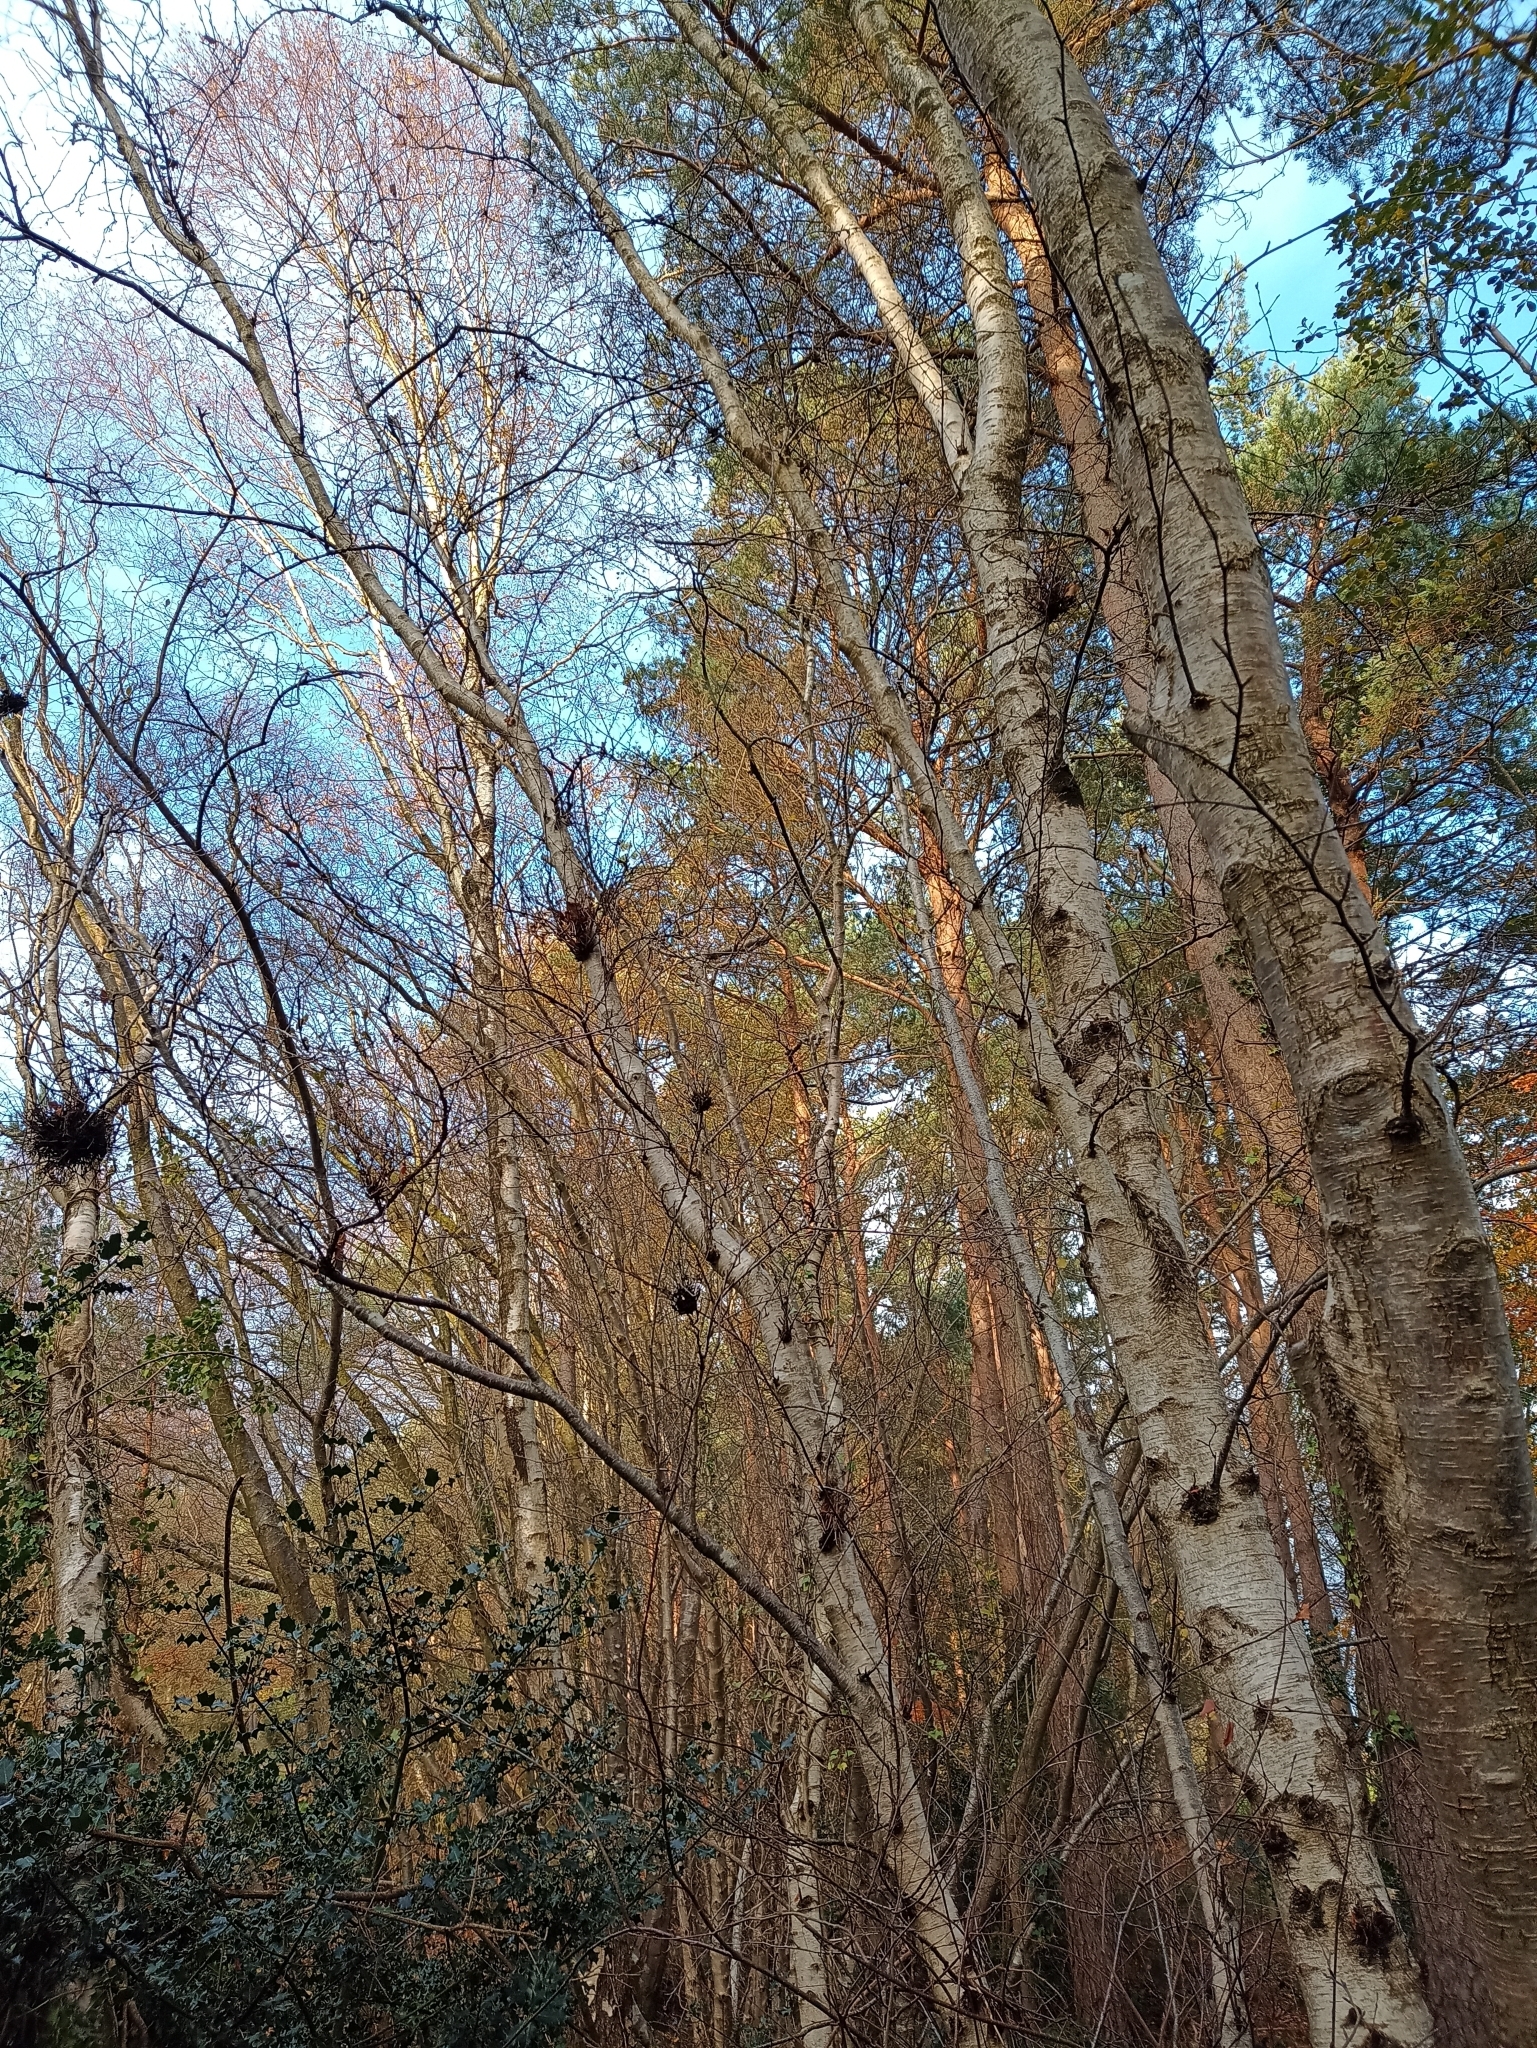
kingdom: Fungi
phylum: Ascomycota
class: Taphrinomycetes
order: Taphrinales
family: Taphrinaceae
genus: Taphrina
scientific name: Taphrina betulina
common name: Birch besom
